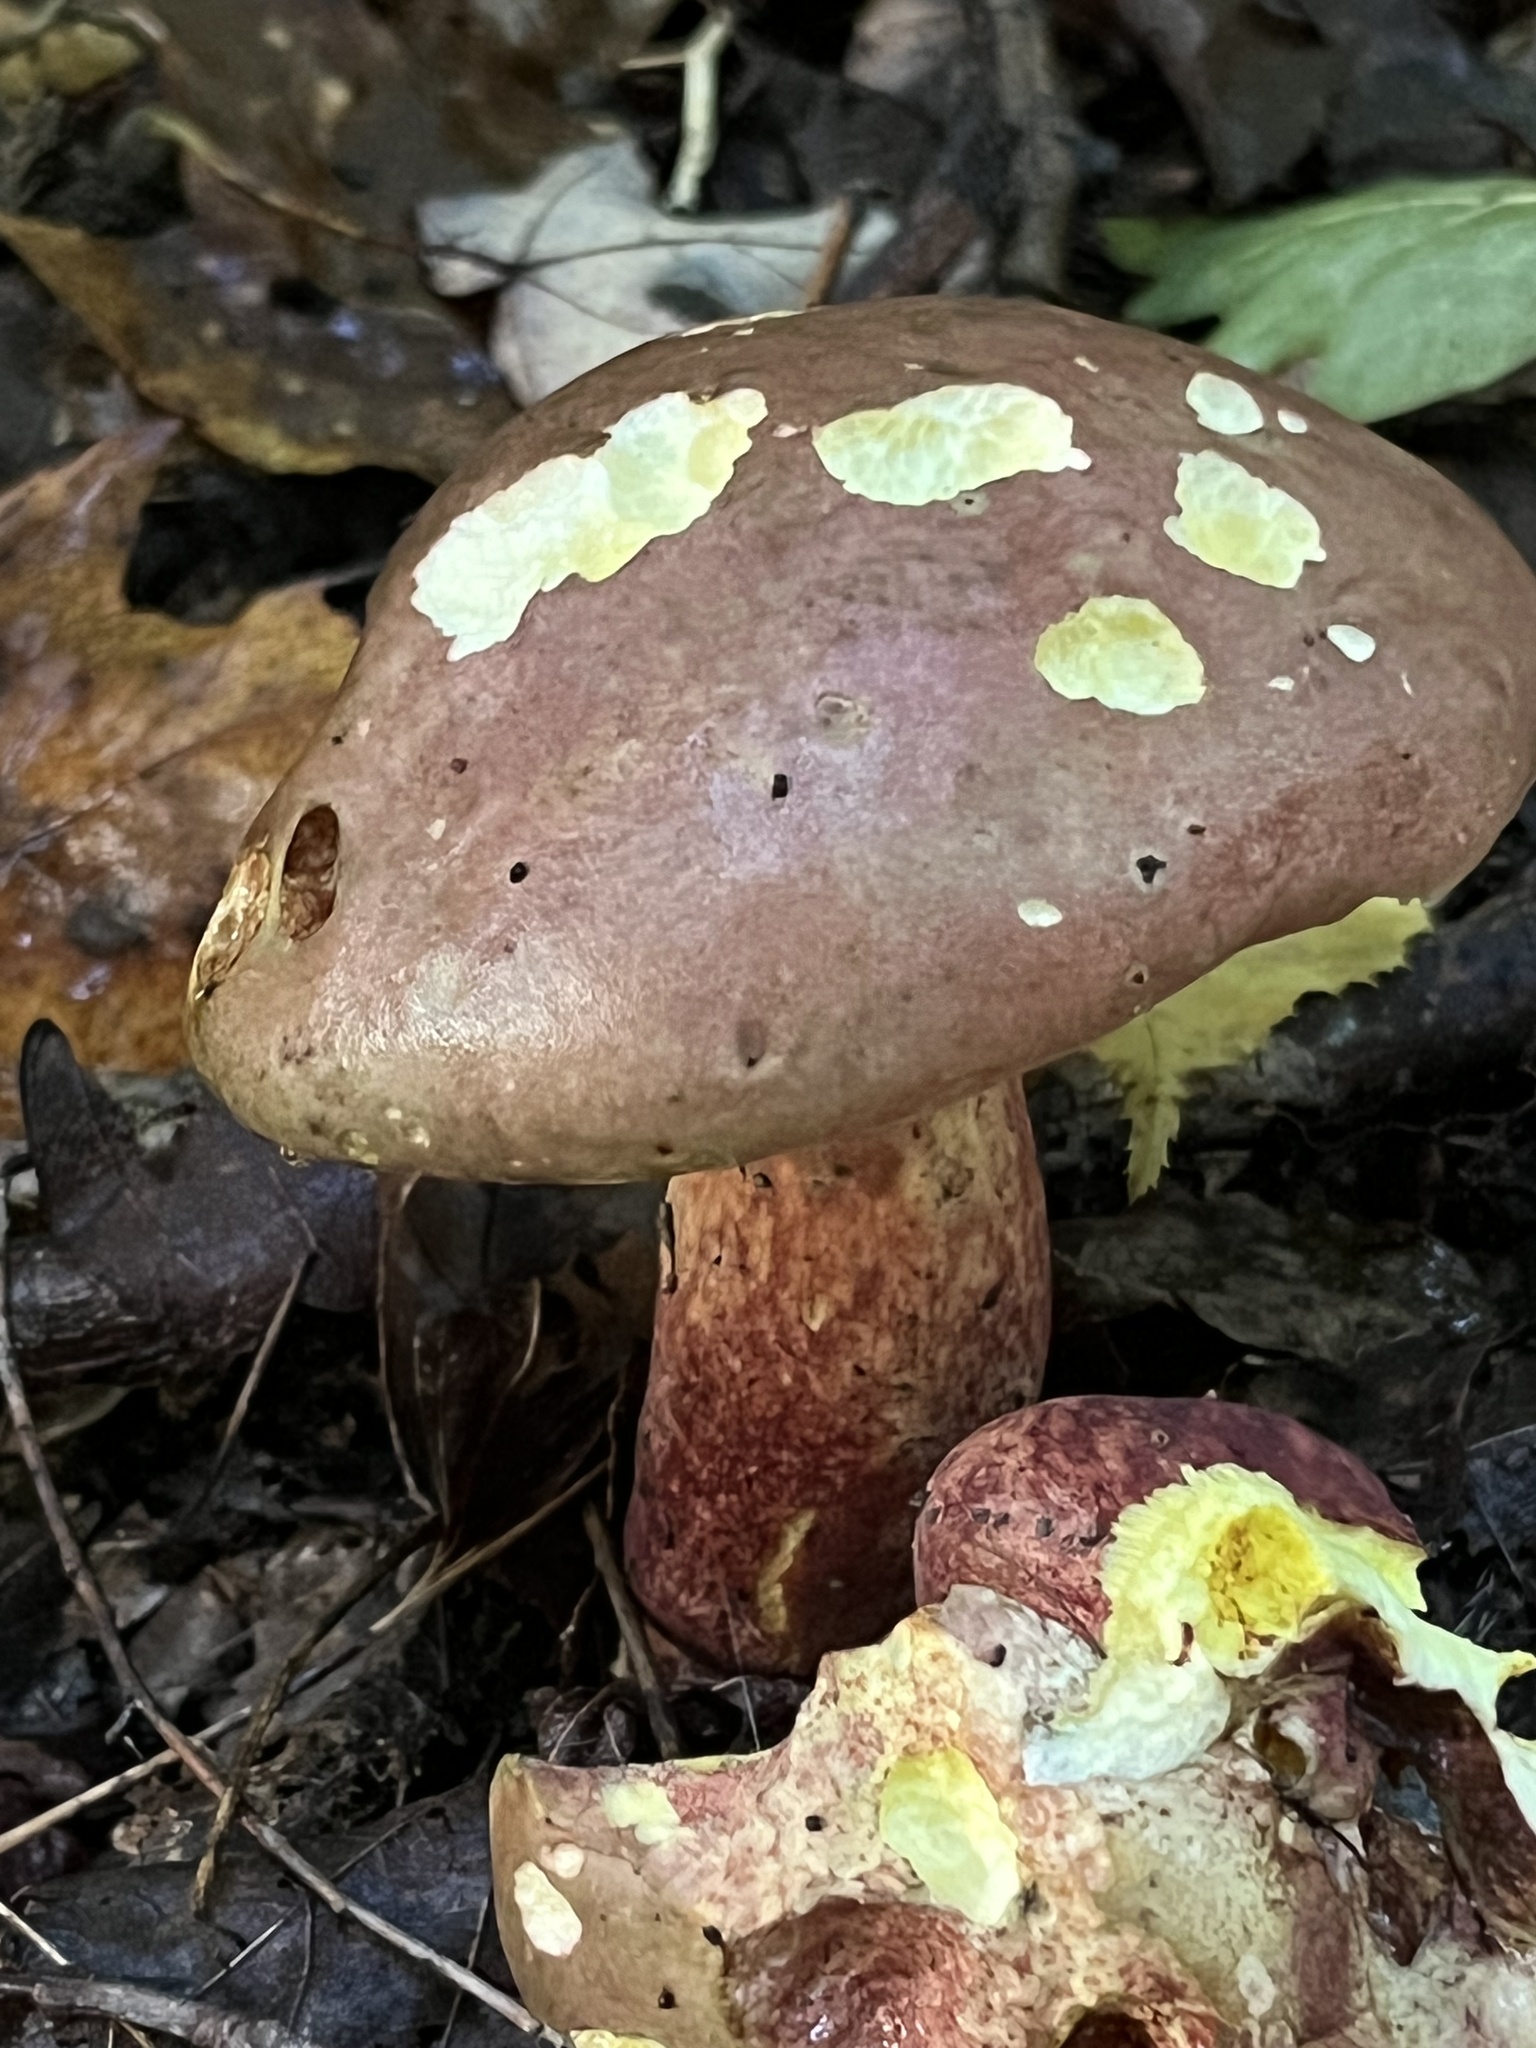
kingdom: Fungi
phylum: Basidiomycota
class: Agaricomycetes
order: Boletales
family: Boletaceae
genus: Baorangia
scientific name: Baorangia bicolor
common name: Two-colored bolete
